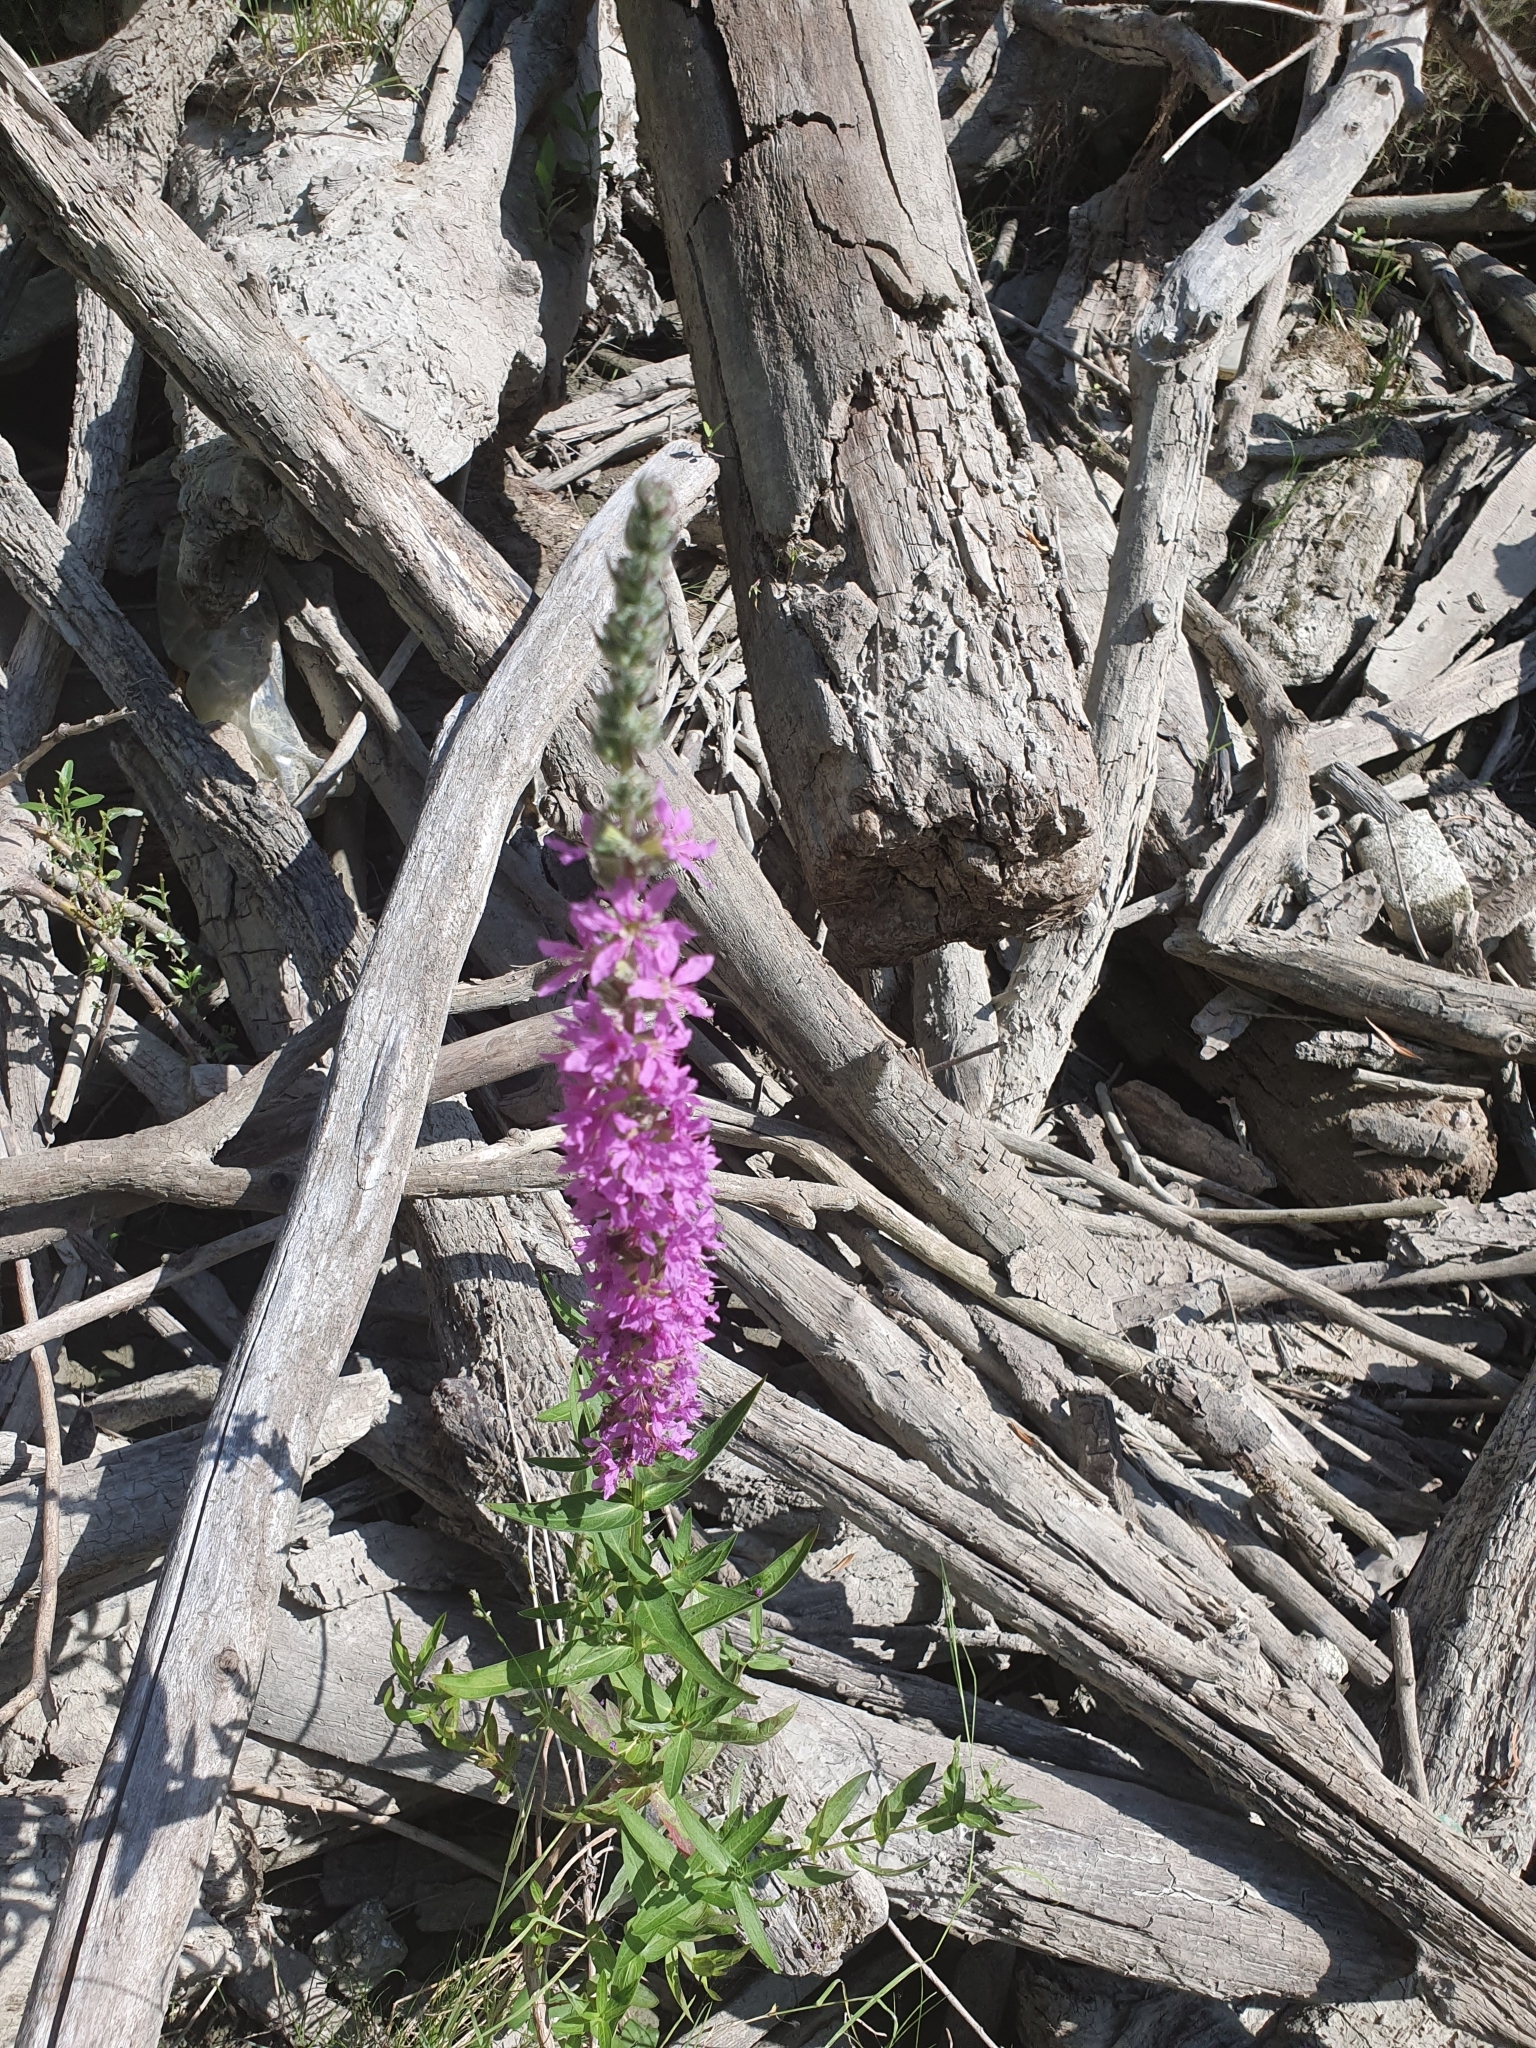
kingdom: Plantae
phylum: Tracheophyta
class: Magnoliopsida
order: Myrtales
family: Lythraceae
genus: Lythrum
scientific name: Lythrum salicaria
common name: Purple loosestrife
